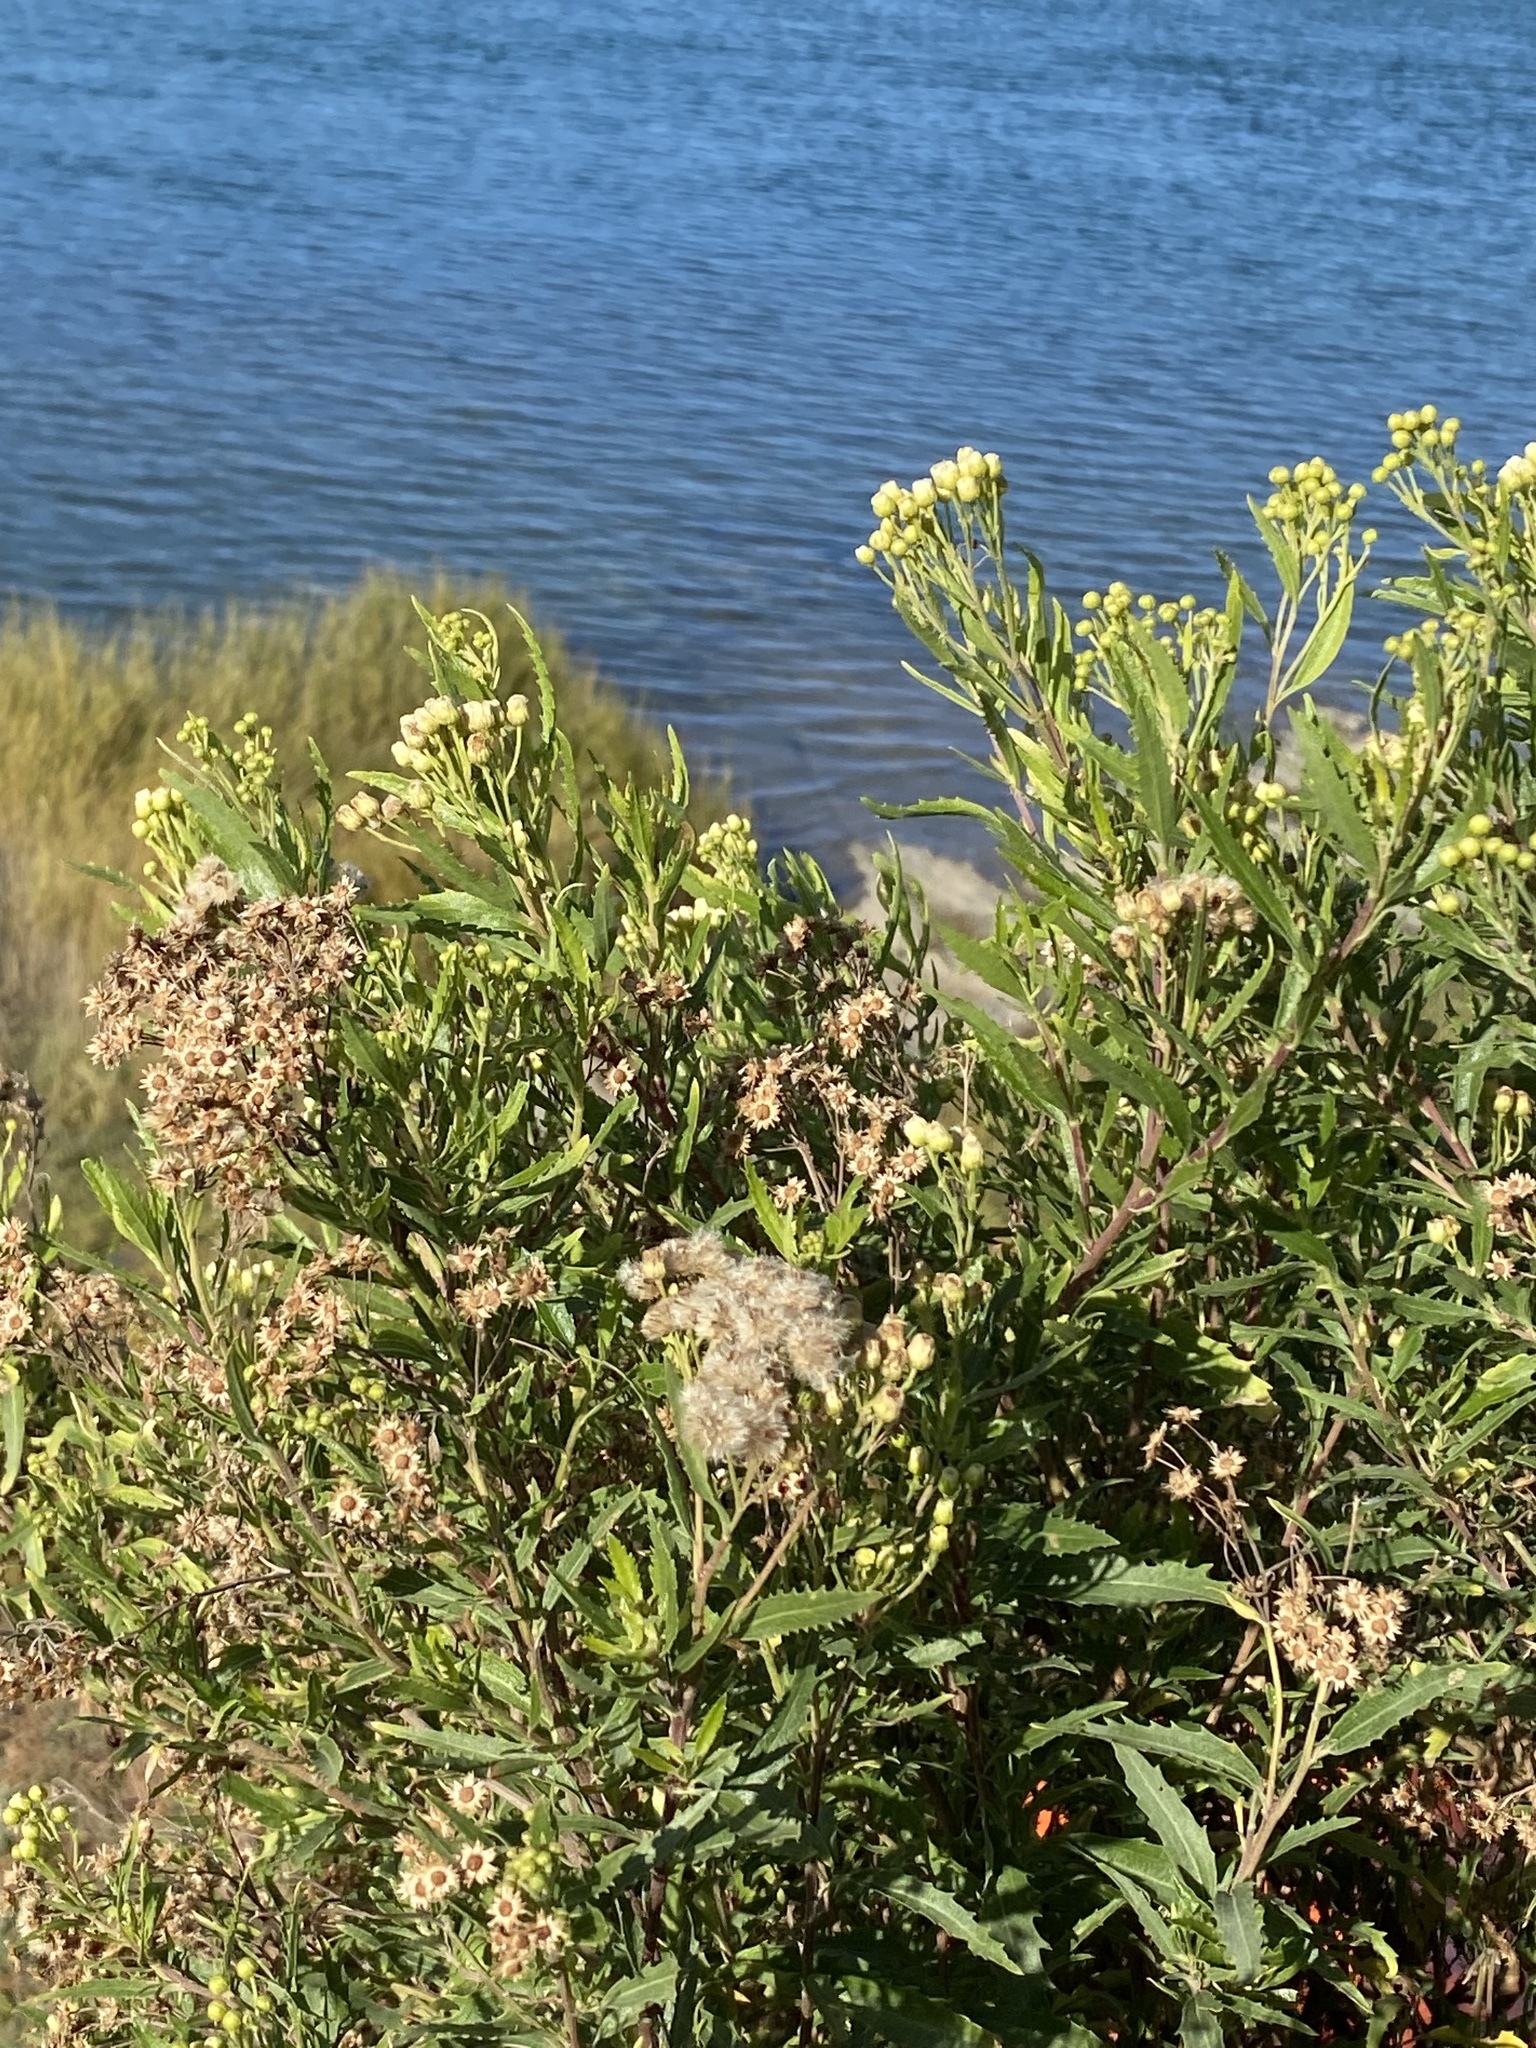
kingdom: Plantae
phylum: Tracheophyta
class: Magnoliopsida
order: Asterales
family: Asteraceae
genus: Nidorella
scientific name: Nidorella ivifolia
